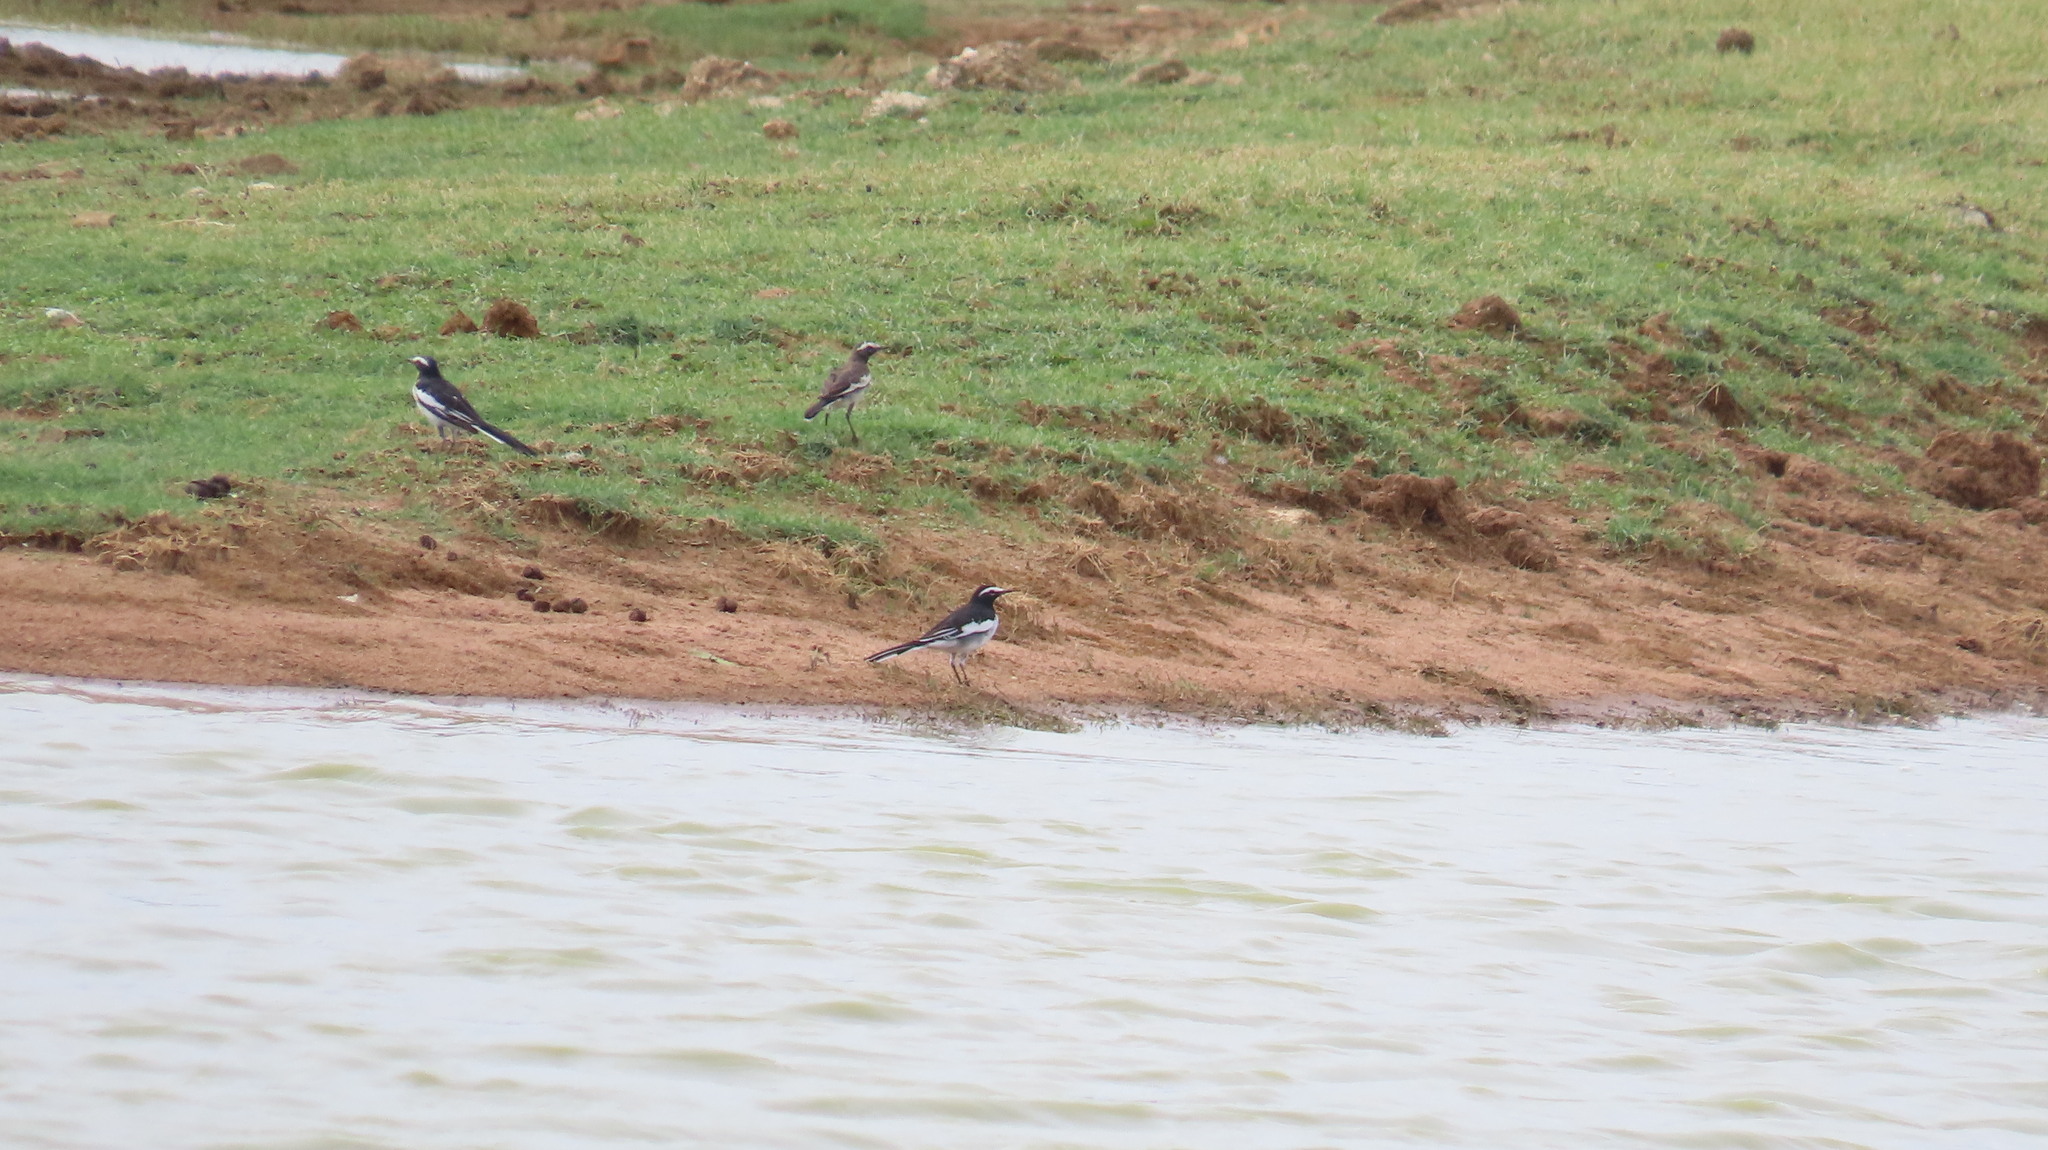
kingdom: Animalia
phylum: Chordata
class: Aves
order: Passeriformes
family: Motacillidae
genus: Motacilla
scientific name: Motacilla maderaspatensis
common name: White-browed wagtail
